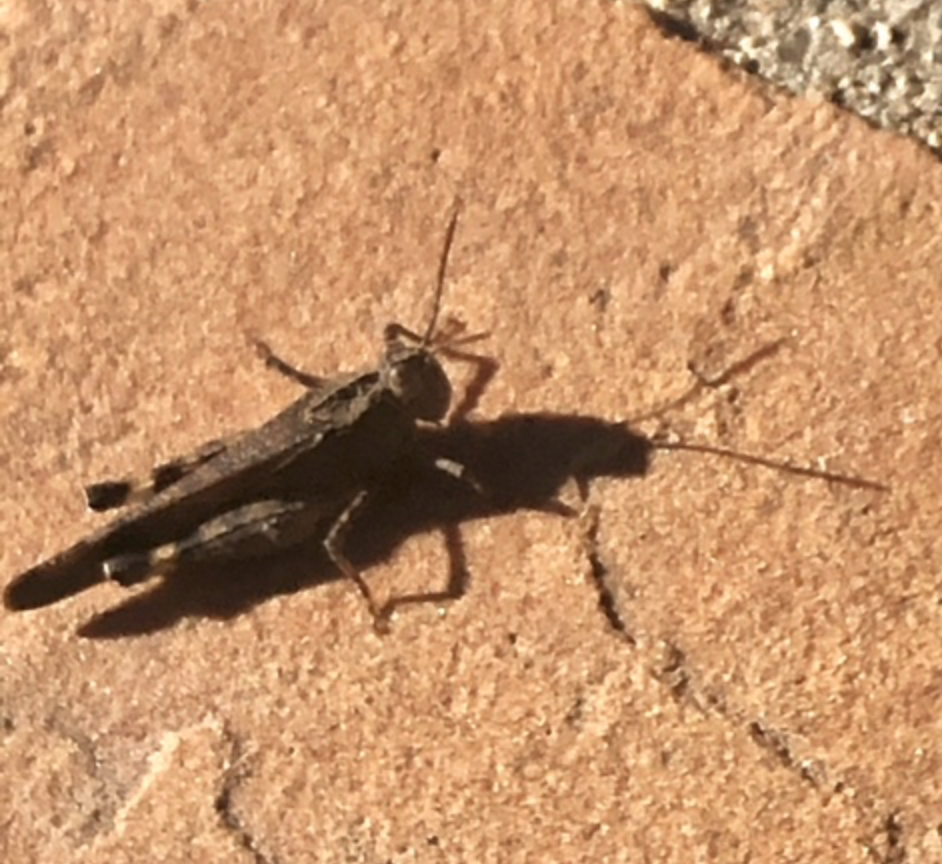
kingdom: Animalia
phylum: Arthropoda
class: Insecta
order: Orthoptera
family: Acrididae
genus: Lactista
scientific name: Lactista gibbosus
